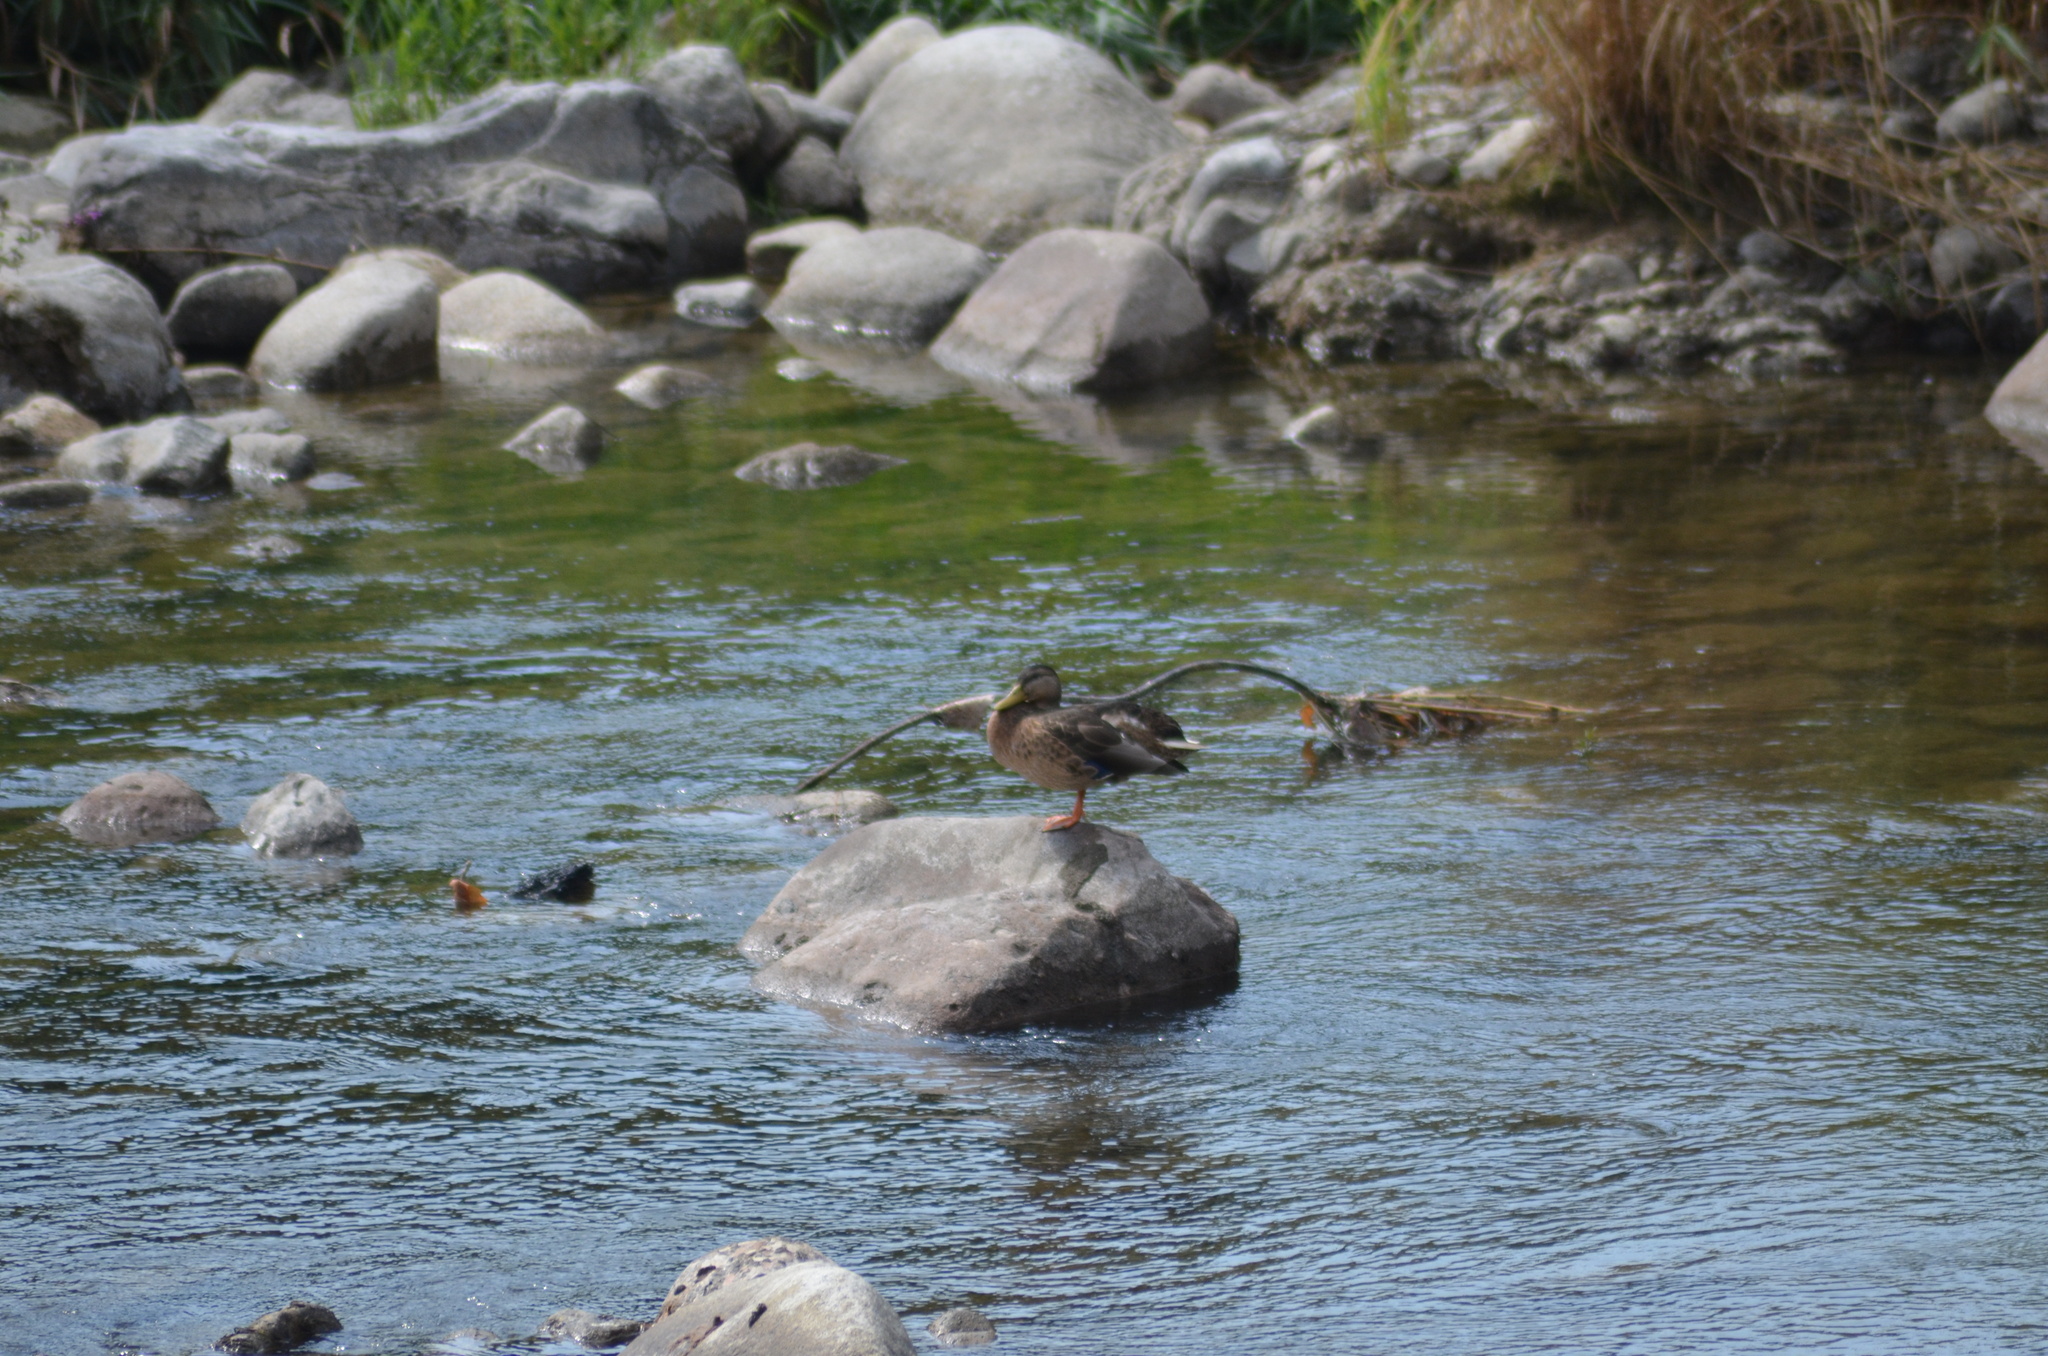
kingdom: Animalia
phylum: Chordata
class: Aves
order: Anseriformes
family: Anatidae
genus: Anas
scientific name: Anas platyrhynchos
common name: Mallard
